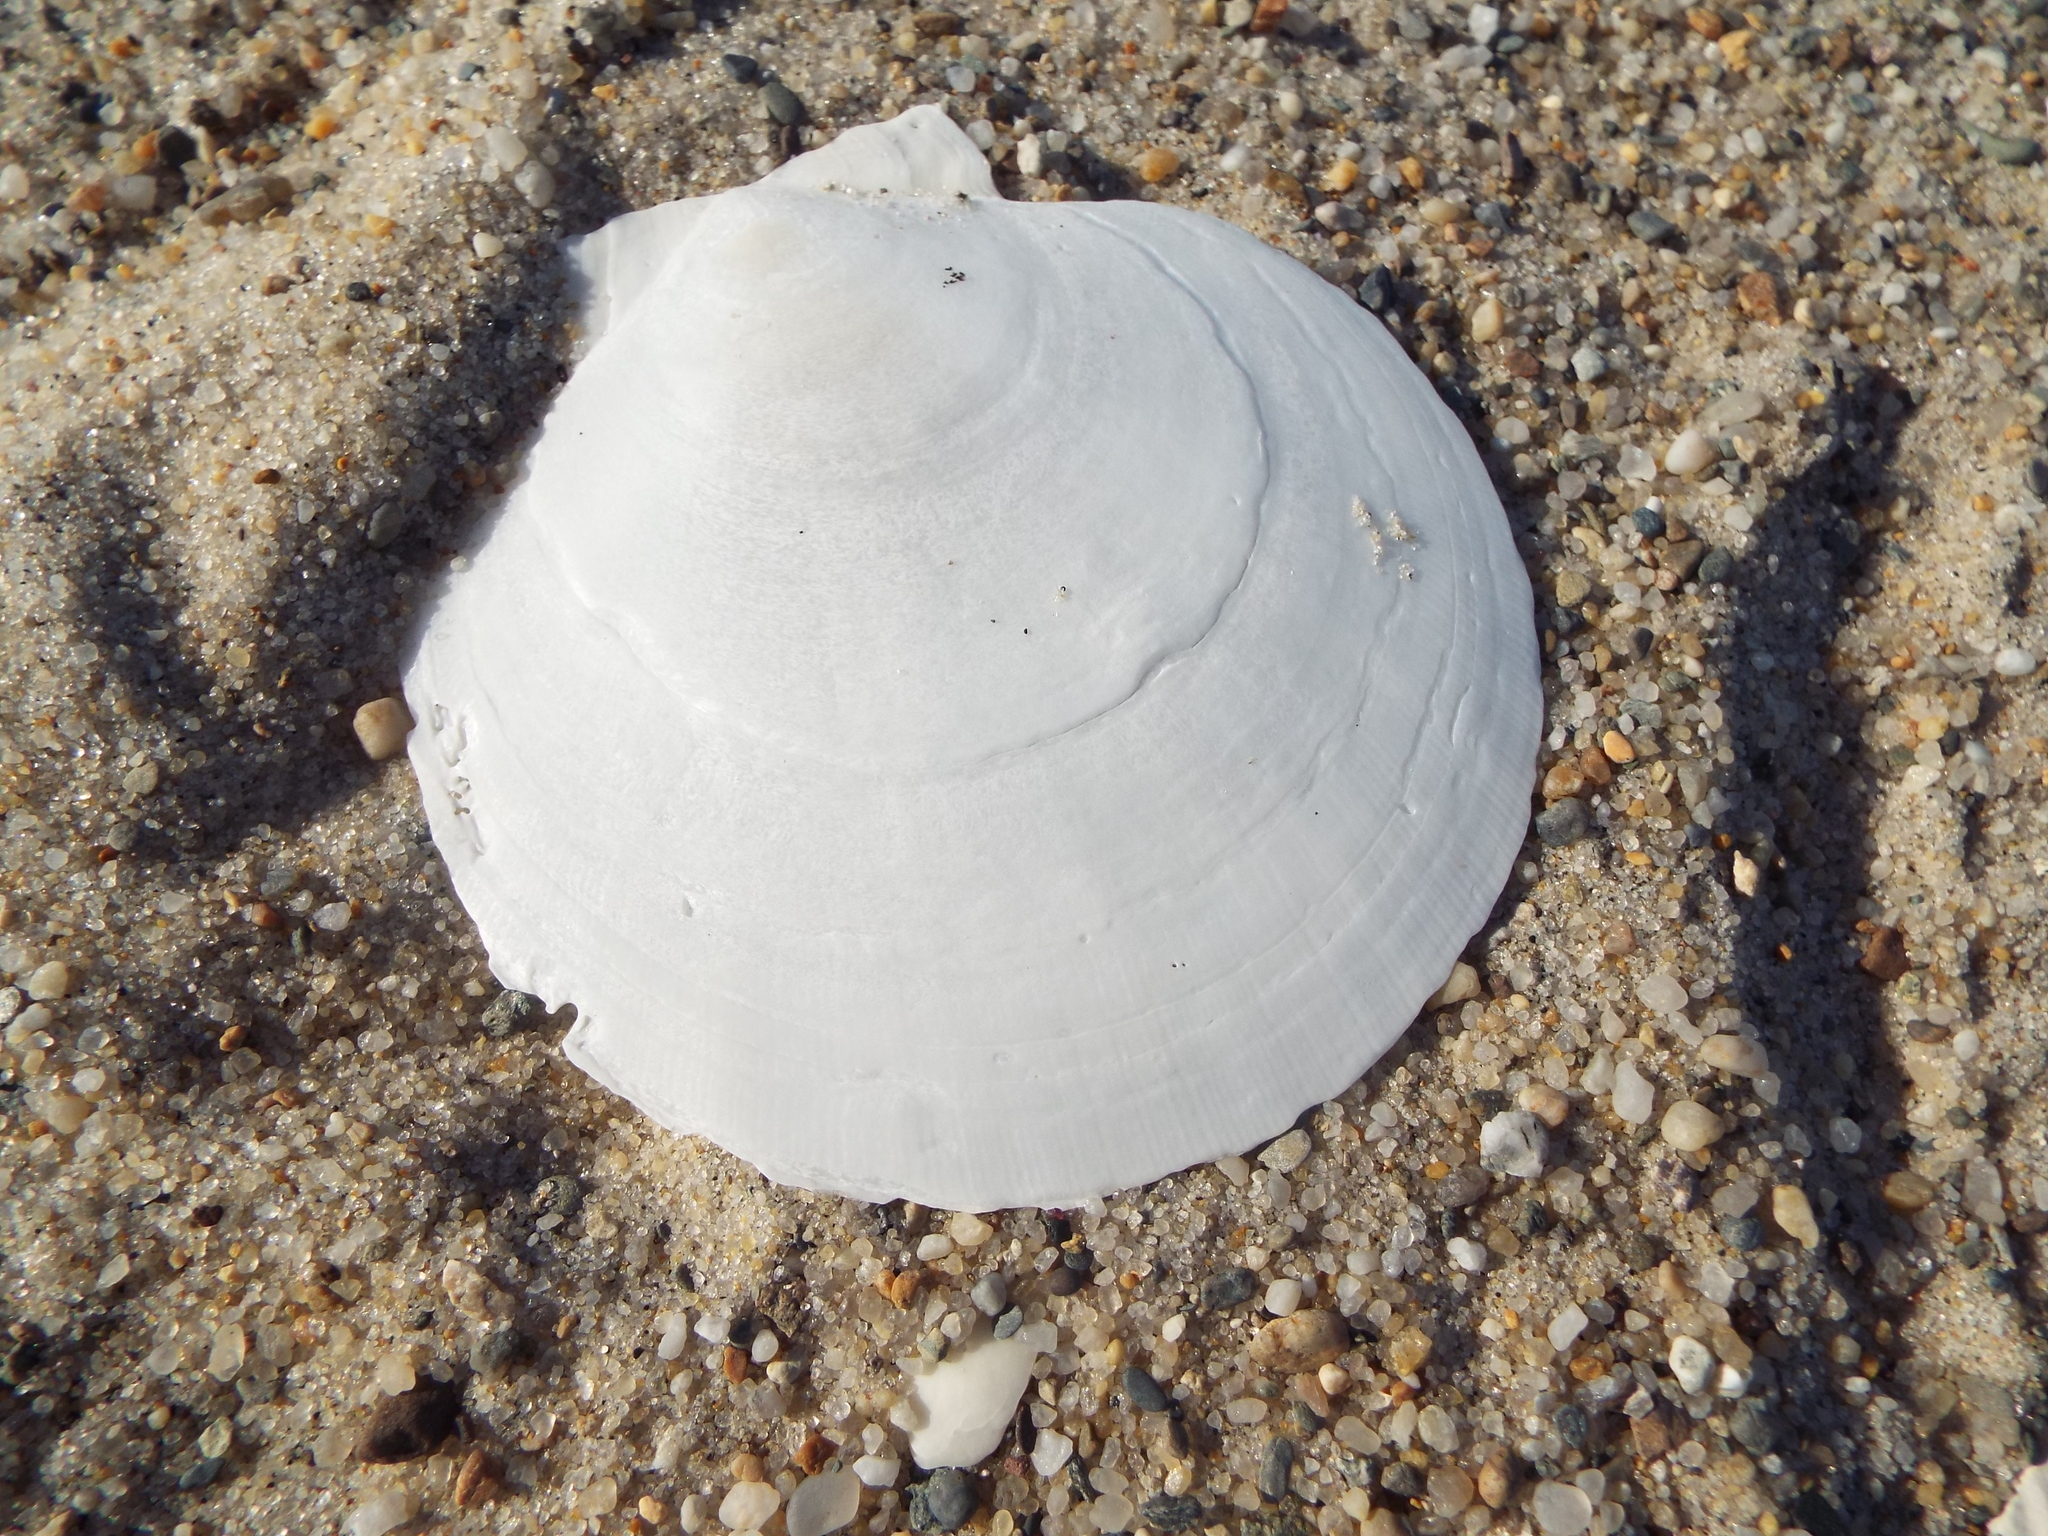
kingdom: Animalia
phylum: Mollusca
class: Bivalvia
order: Pectinida
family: Pectinidae
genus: Placopecten
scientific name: Placopecten magellanicus
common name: American sea scallop
